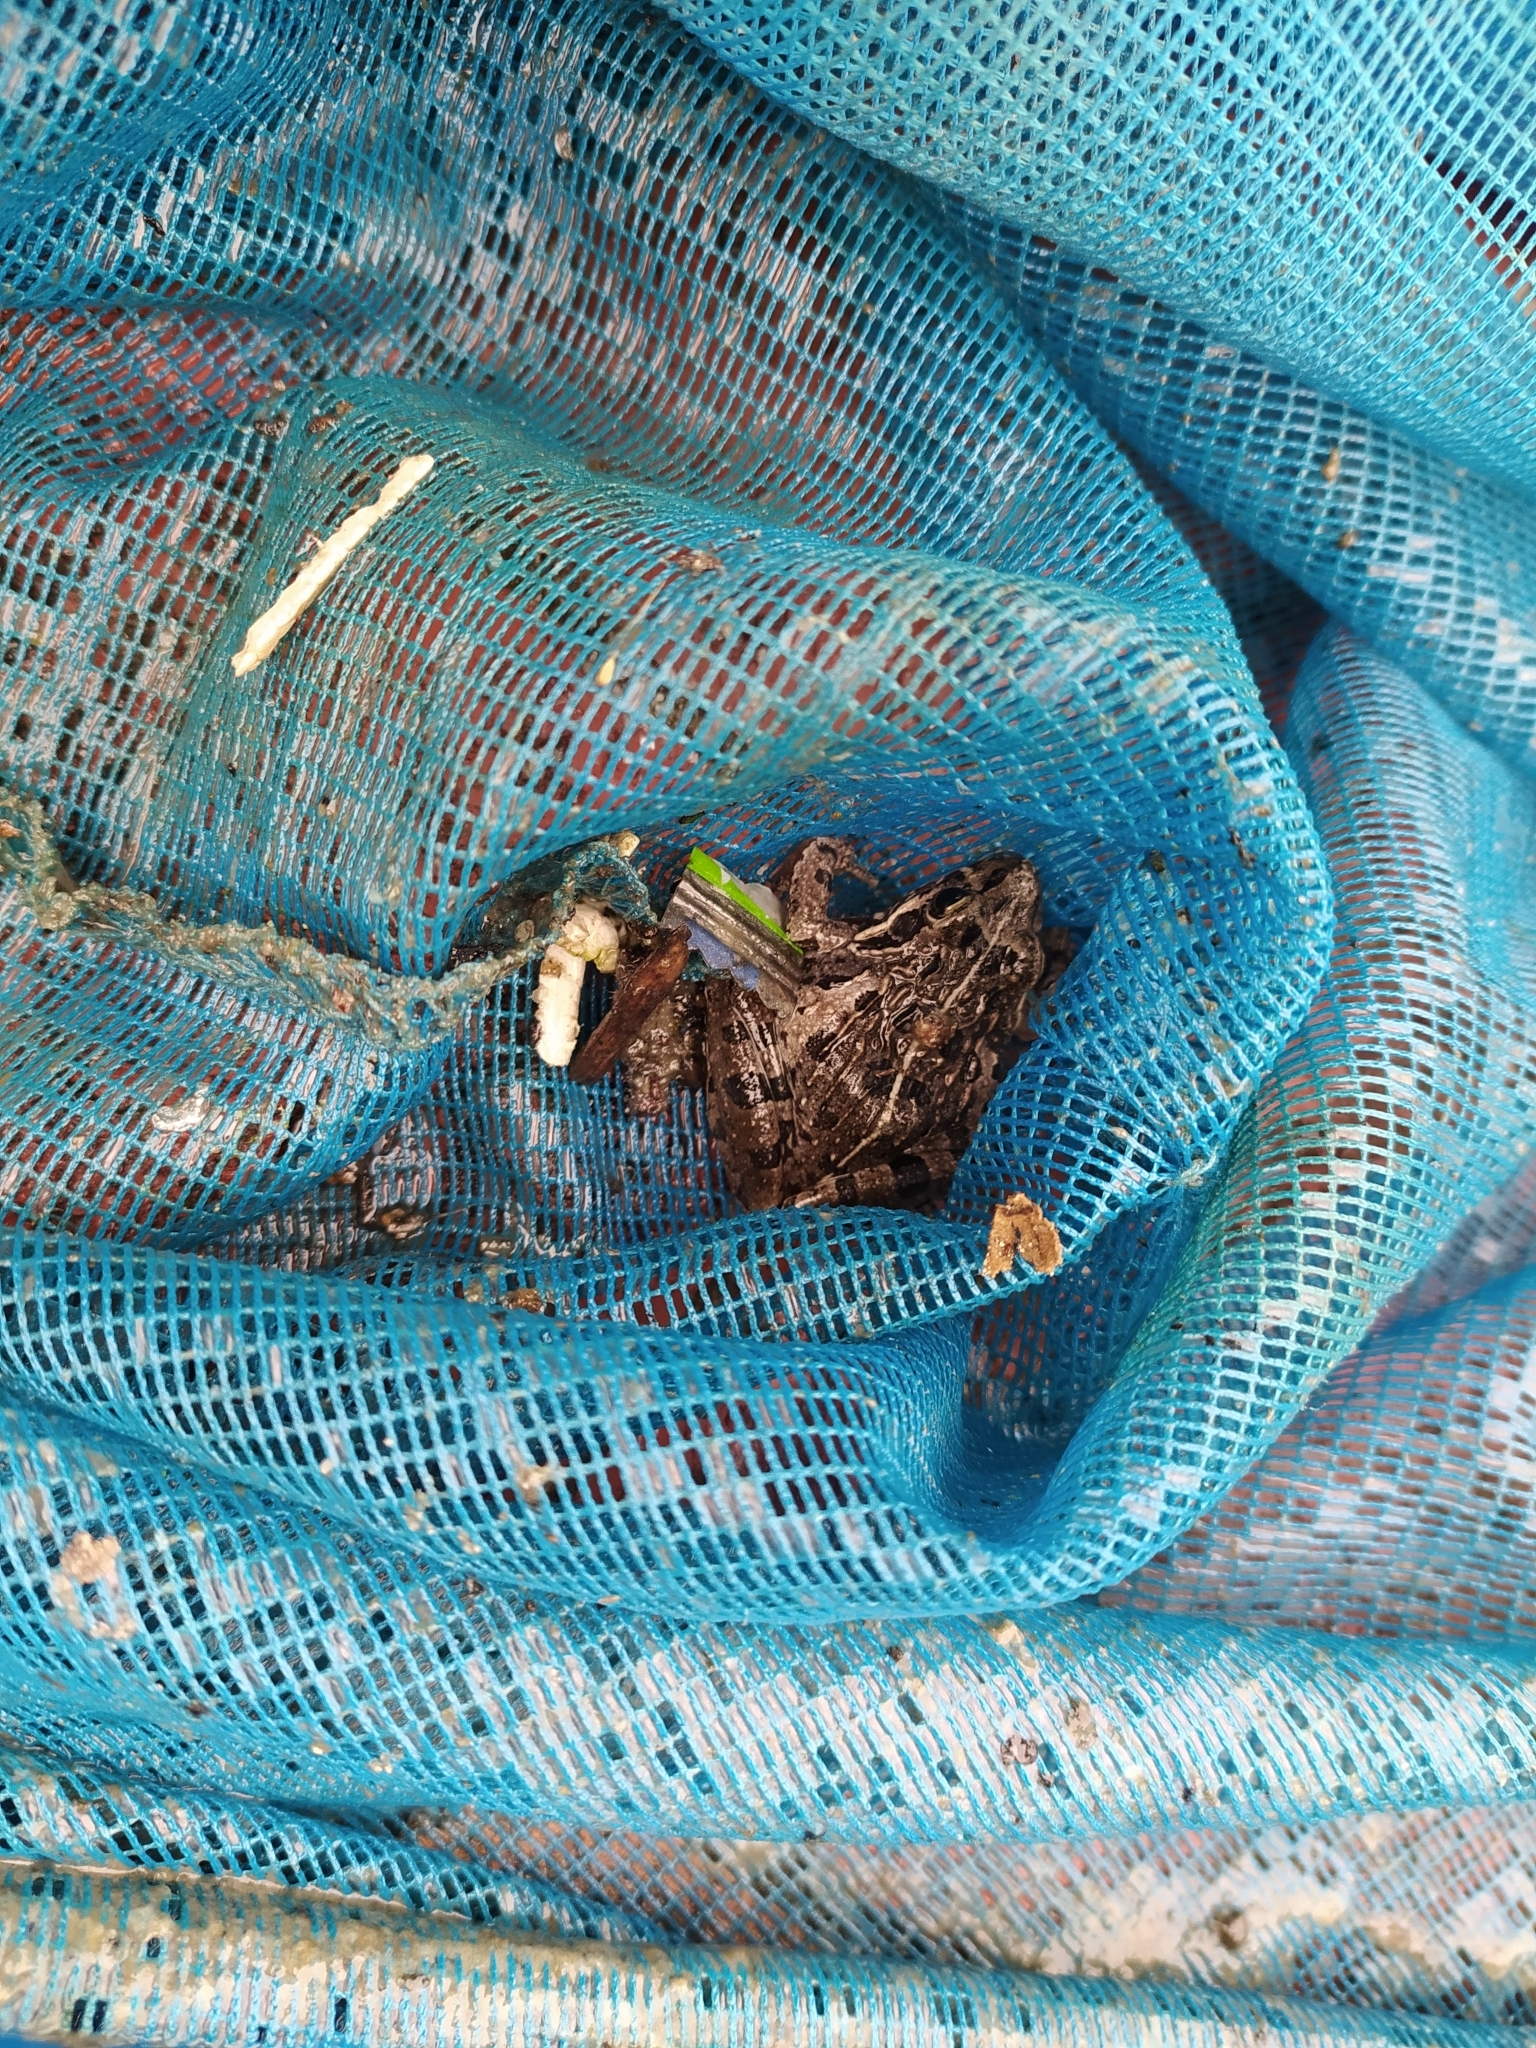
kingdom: Animalia
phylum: Chordata
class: Amphibia
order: Anura
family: Pyxicephalidae
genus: Strongylopus
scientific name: Strongylopus grayii
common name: Gray's stream frog
